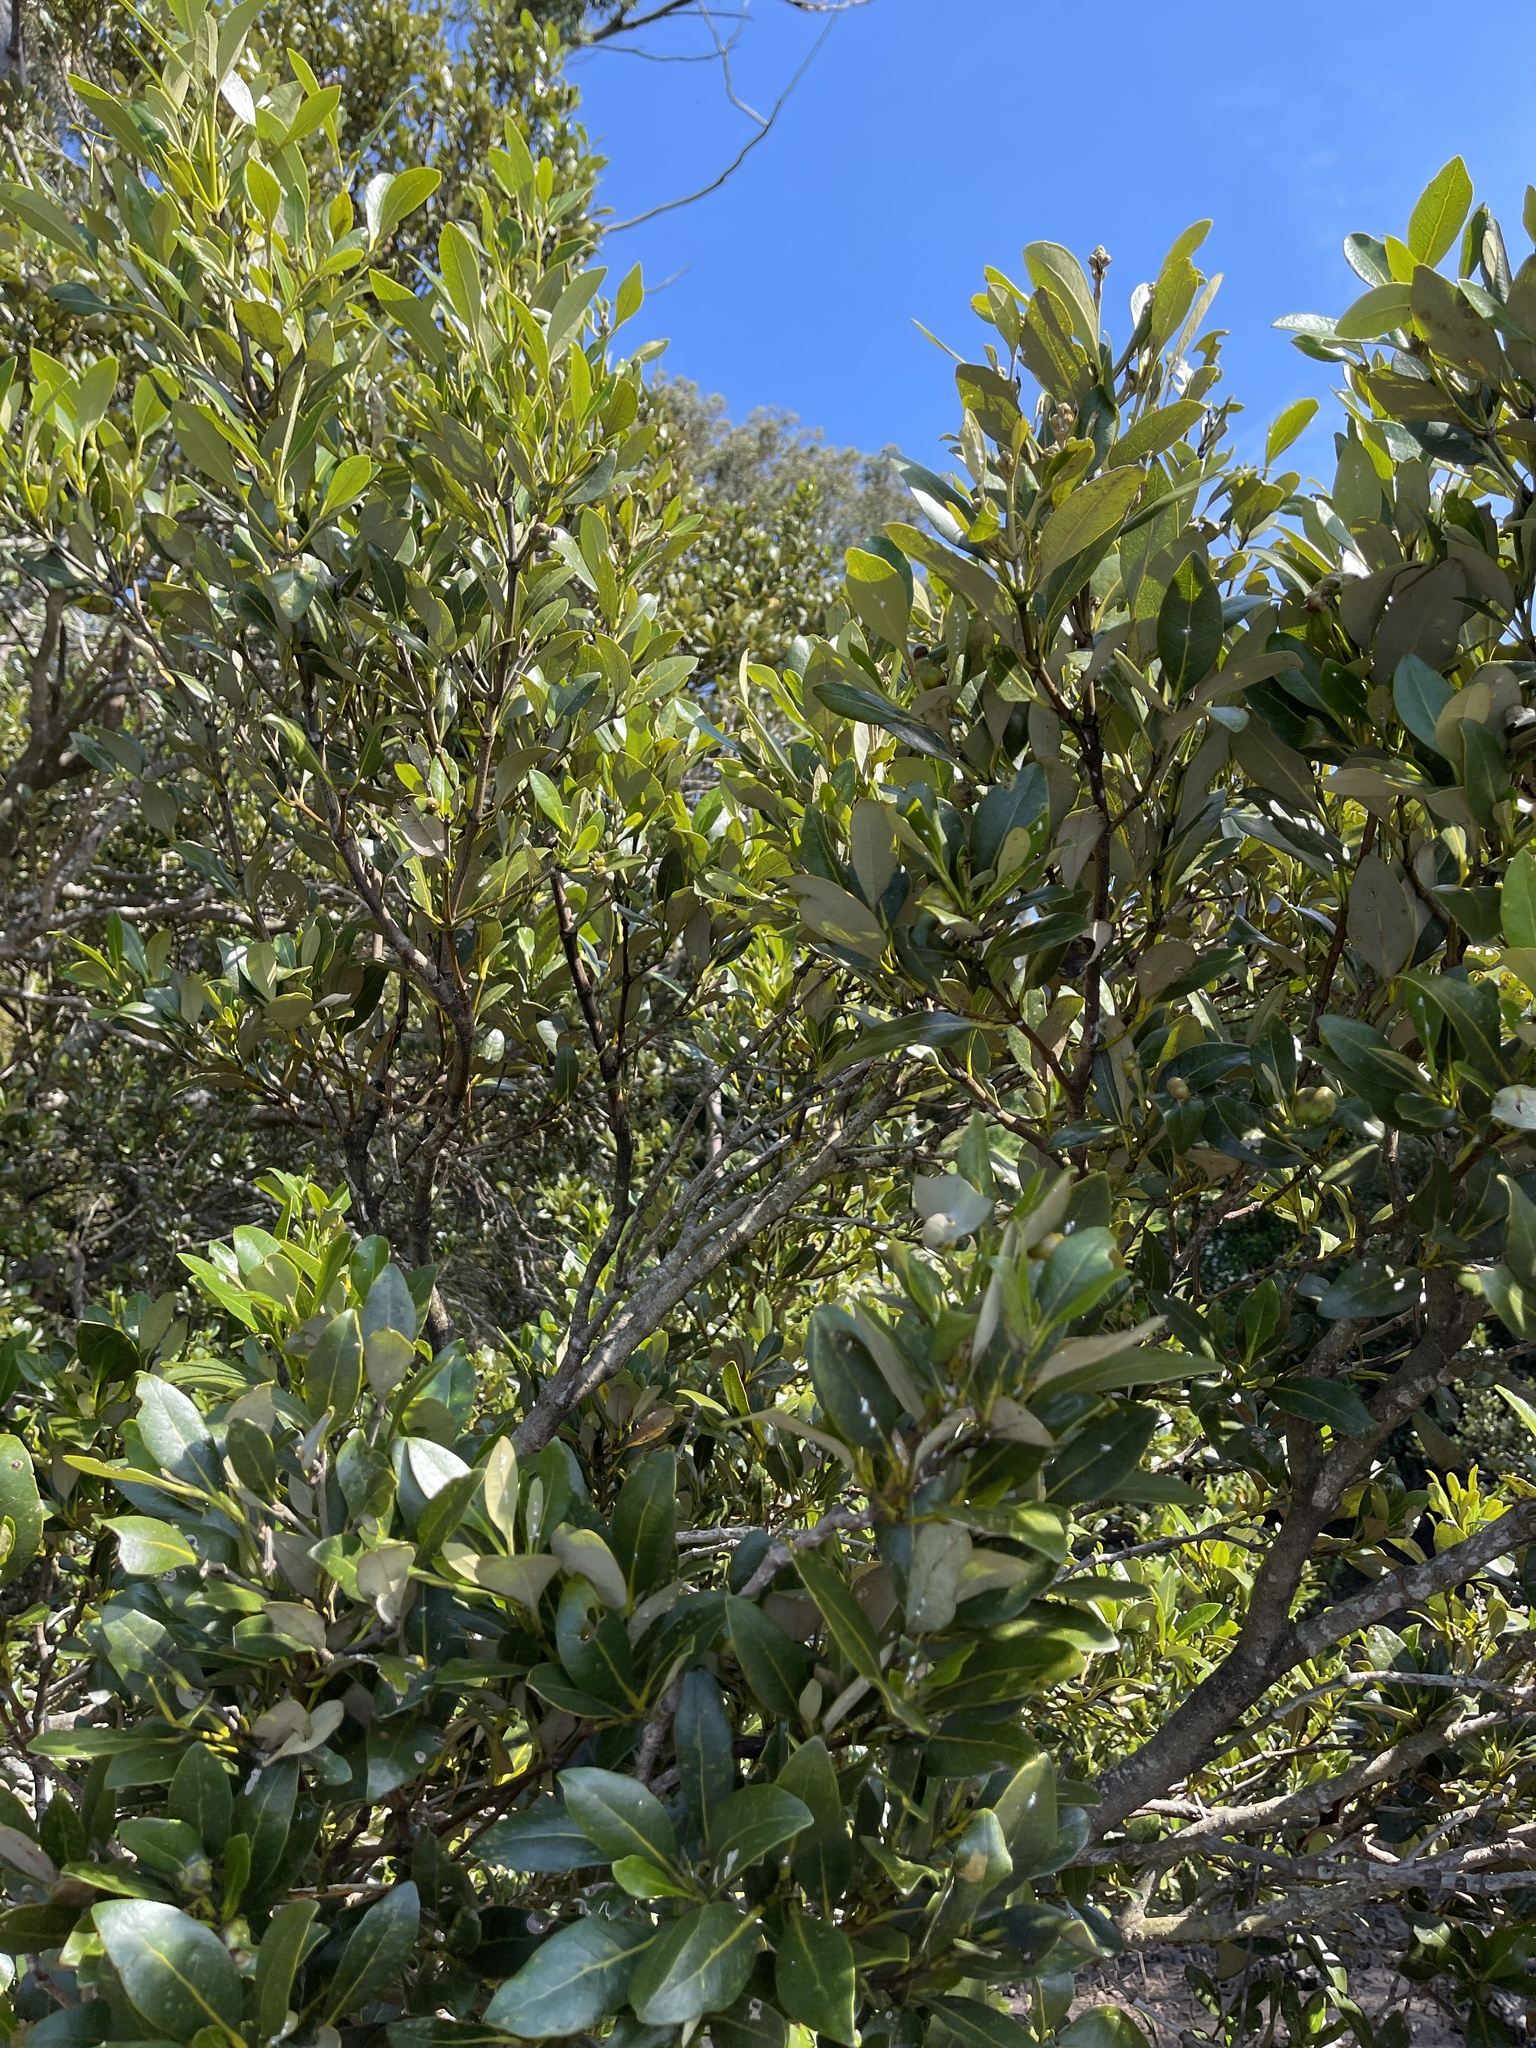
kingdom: Plantae
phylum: Tracheophyta
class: Magnoliopsida
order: Lamiales
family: Acanthaceae
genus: Avicennia
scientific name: Avicennia marina
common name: Gray mangrove
